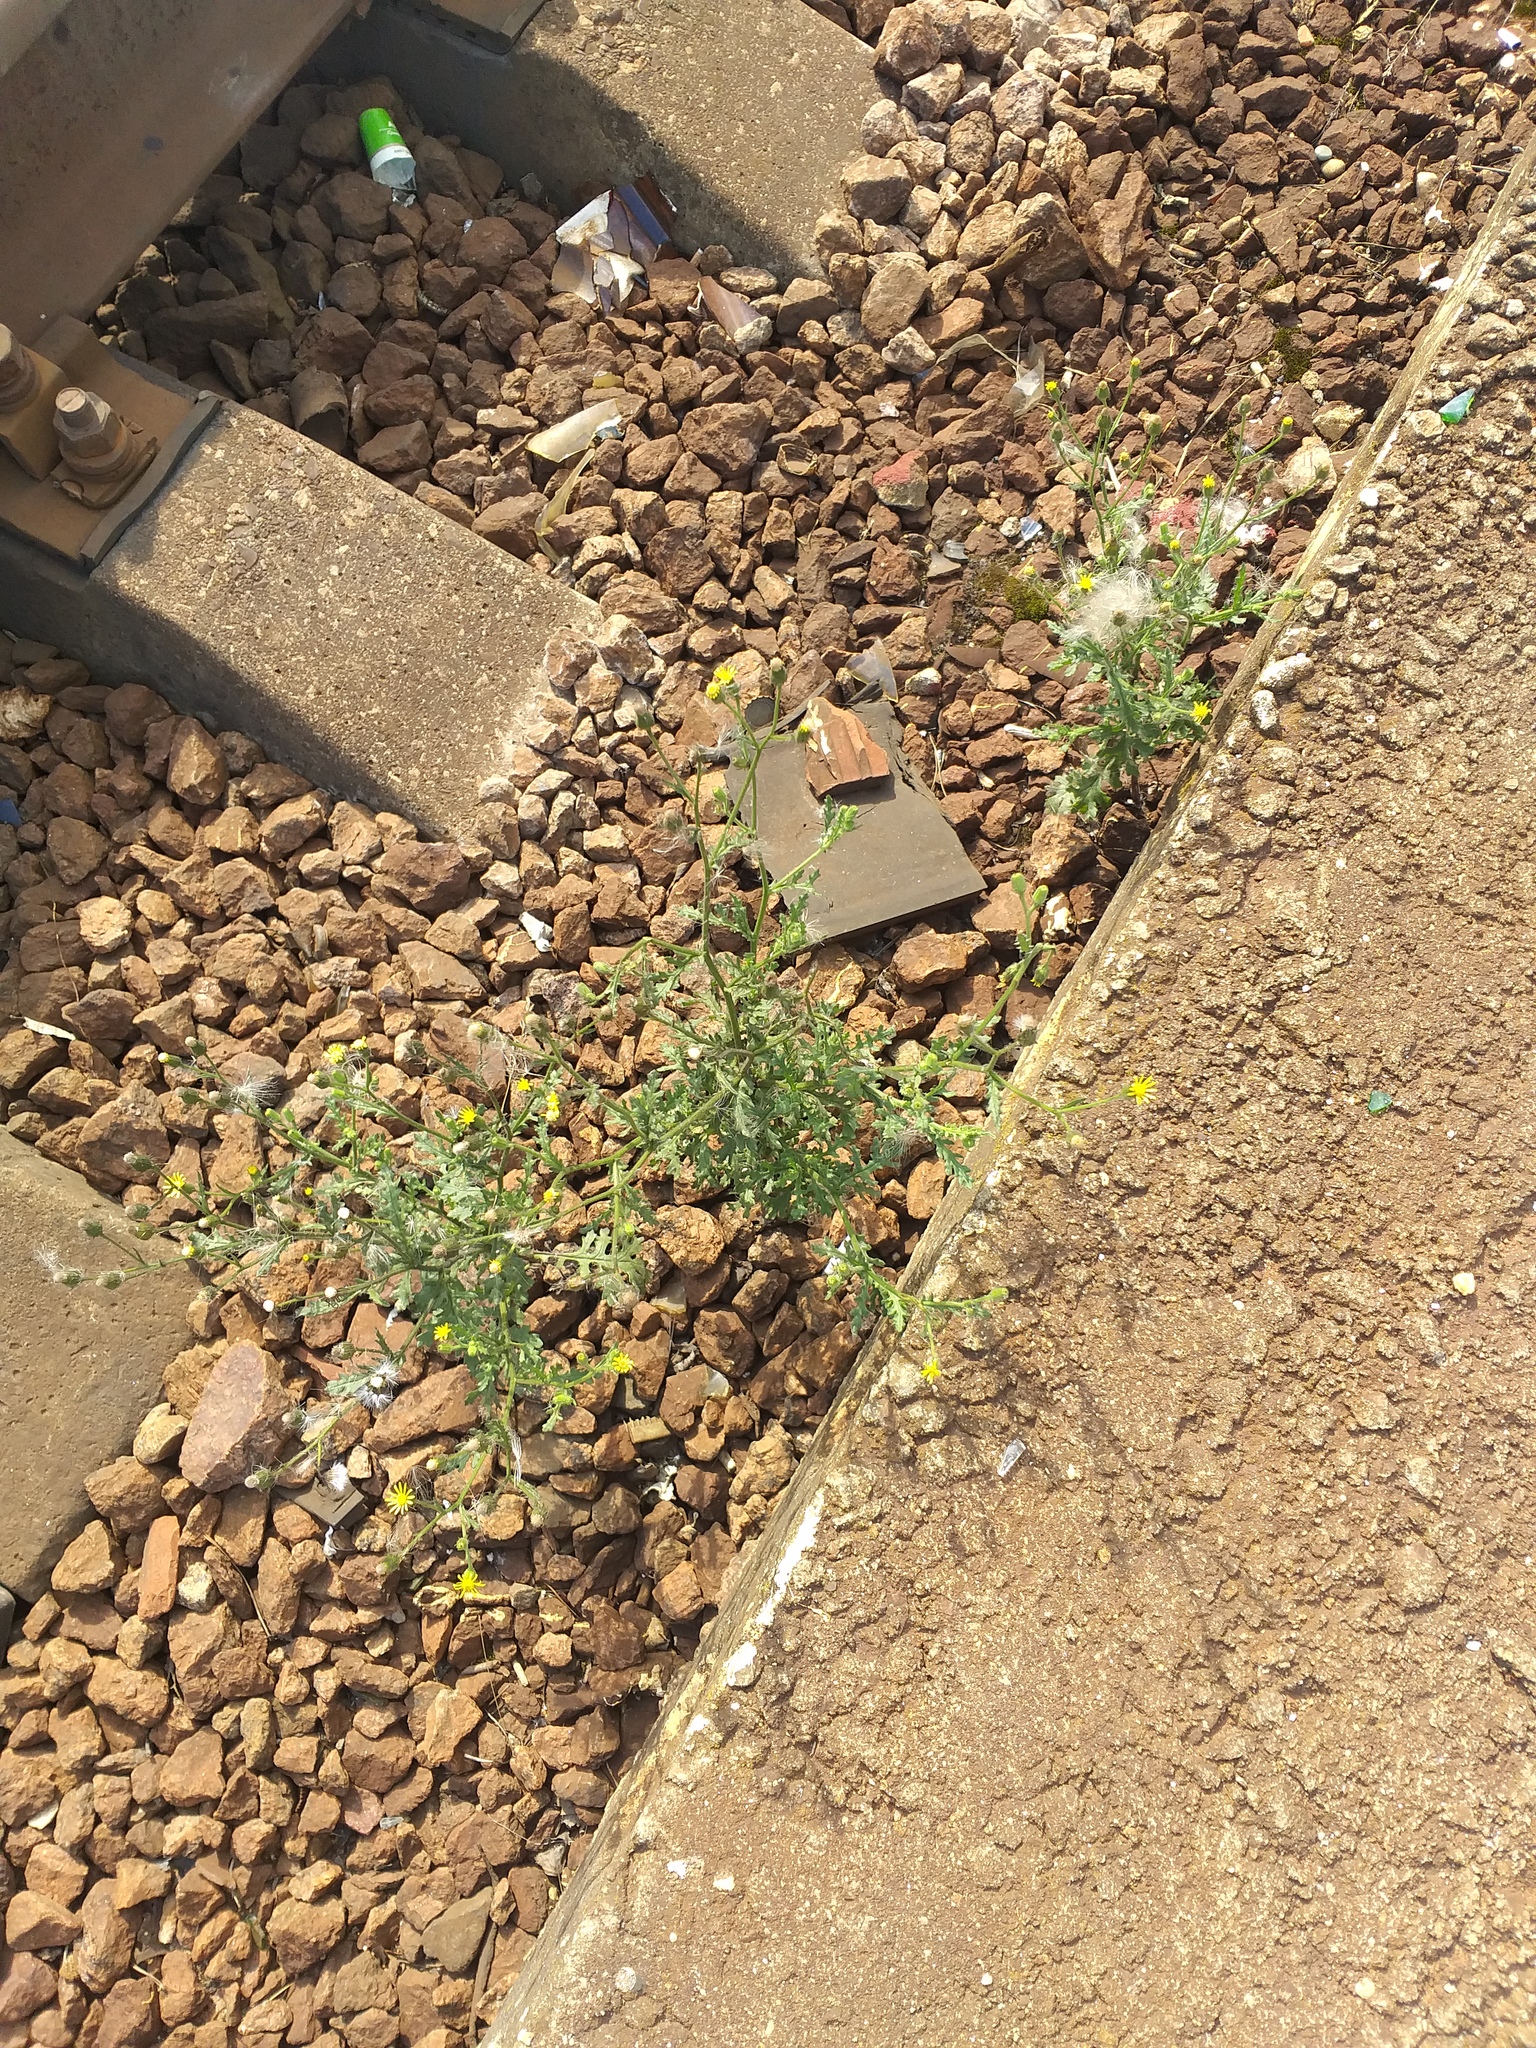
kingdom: Plantae
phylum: Tracheophyta
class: Magnoliopsida
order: Asterales
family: Asteraceae
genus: Senecio
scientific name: Senecio viscosus
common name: Sticky groundsel
